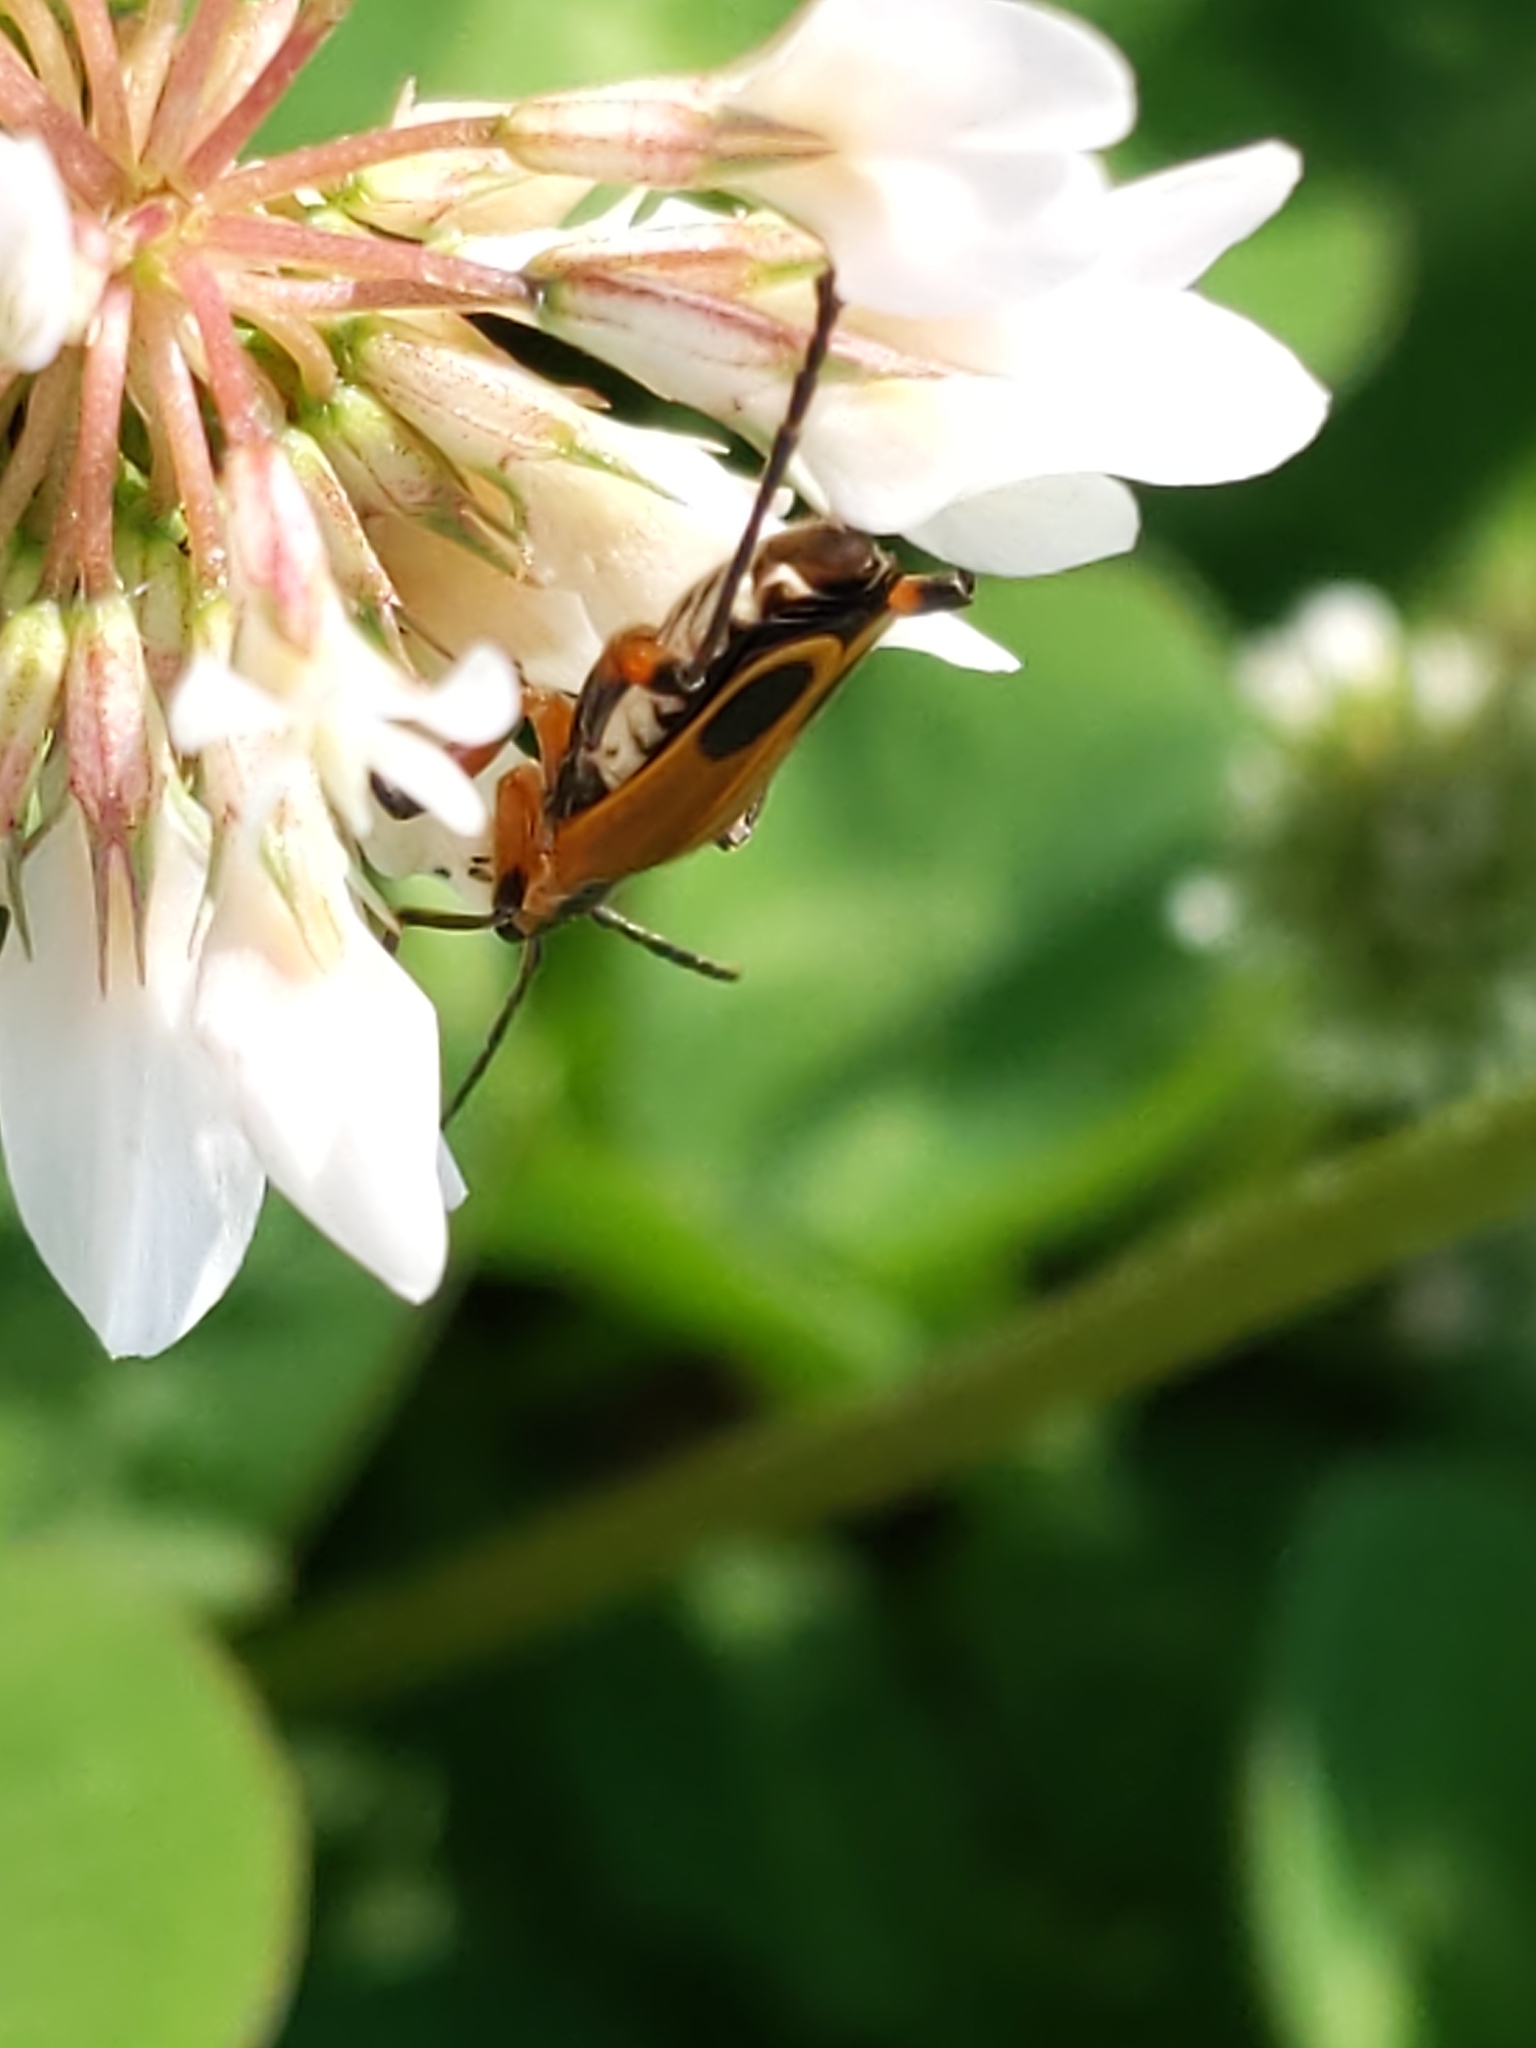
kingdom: Animalia
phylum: Arthropoda
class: Insecta
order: Coleoptera
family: Cantharidae
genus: Chauliognathus
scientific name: Chauliognathus marginatus
